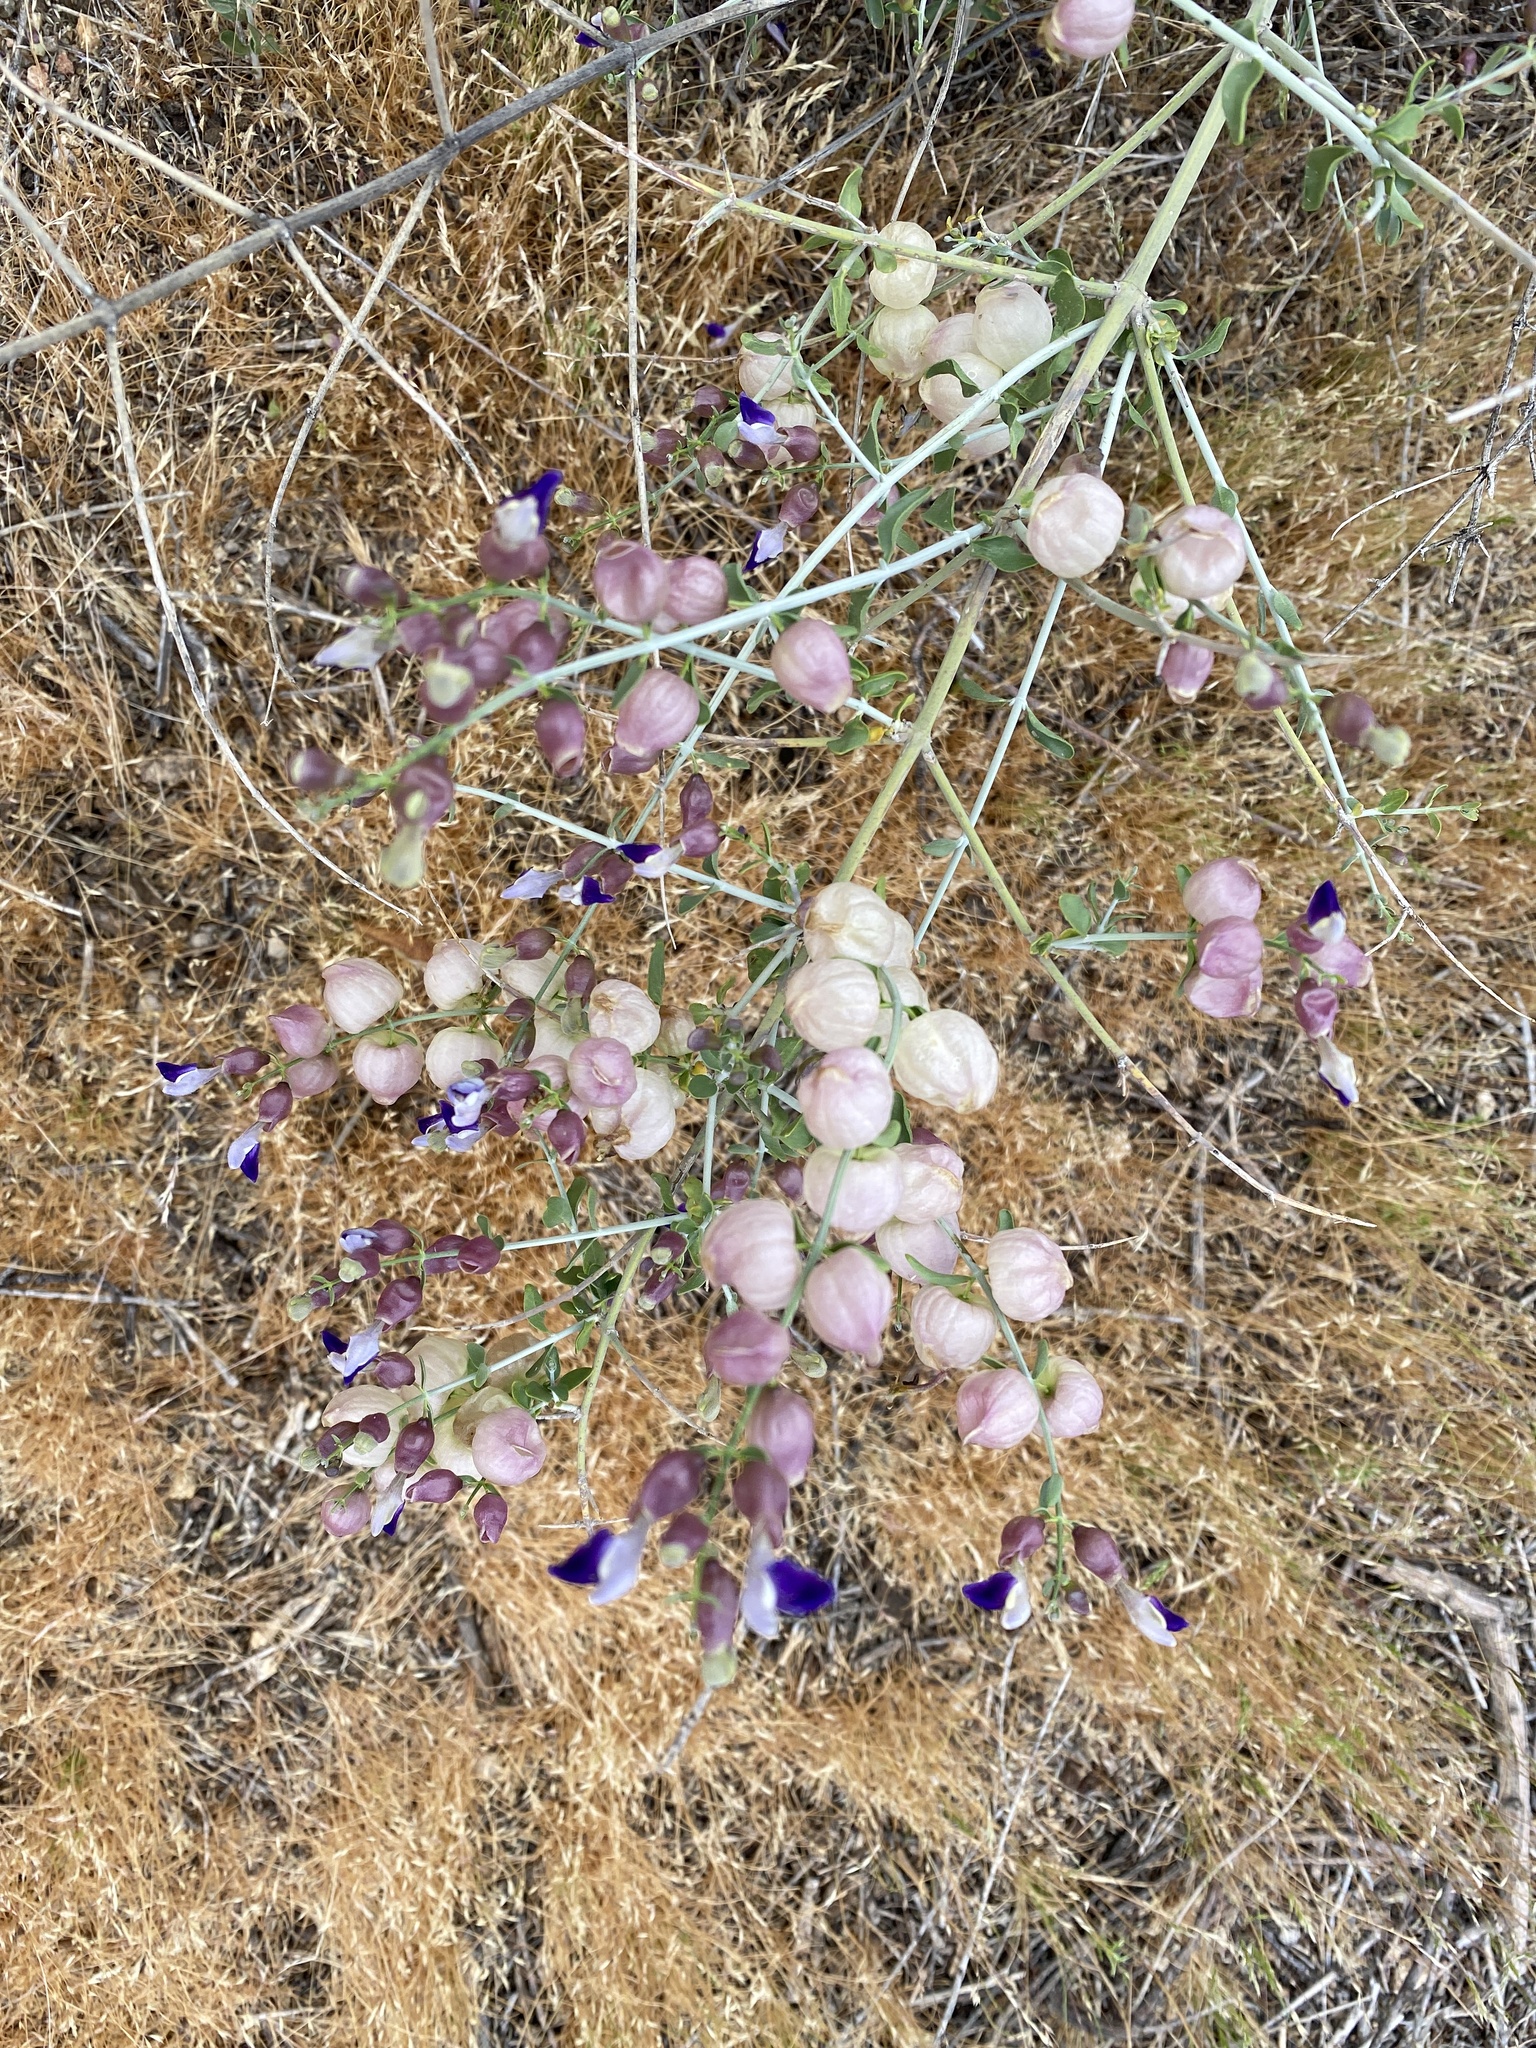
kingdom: Plantae
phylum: Tracheophyta
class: Magnoliopsida
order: Lamiales
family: Lamiaceae
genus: Scutellaria
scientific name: Scutellaria mexicana
